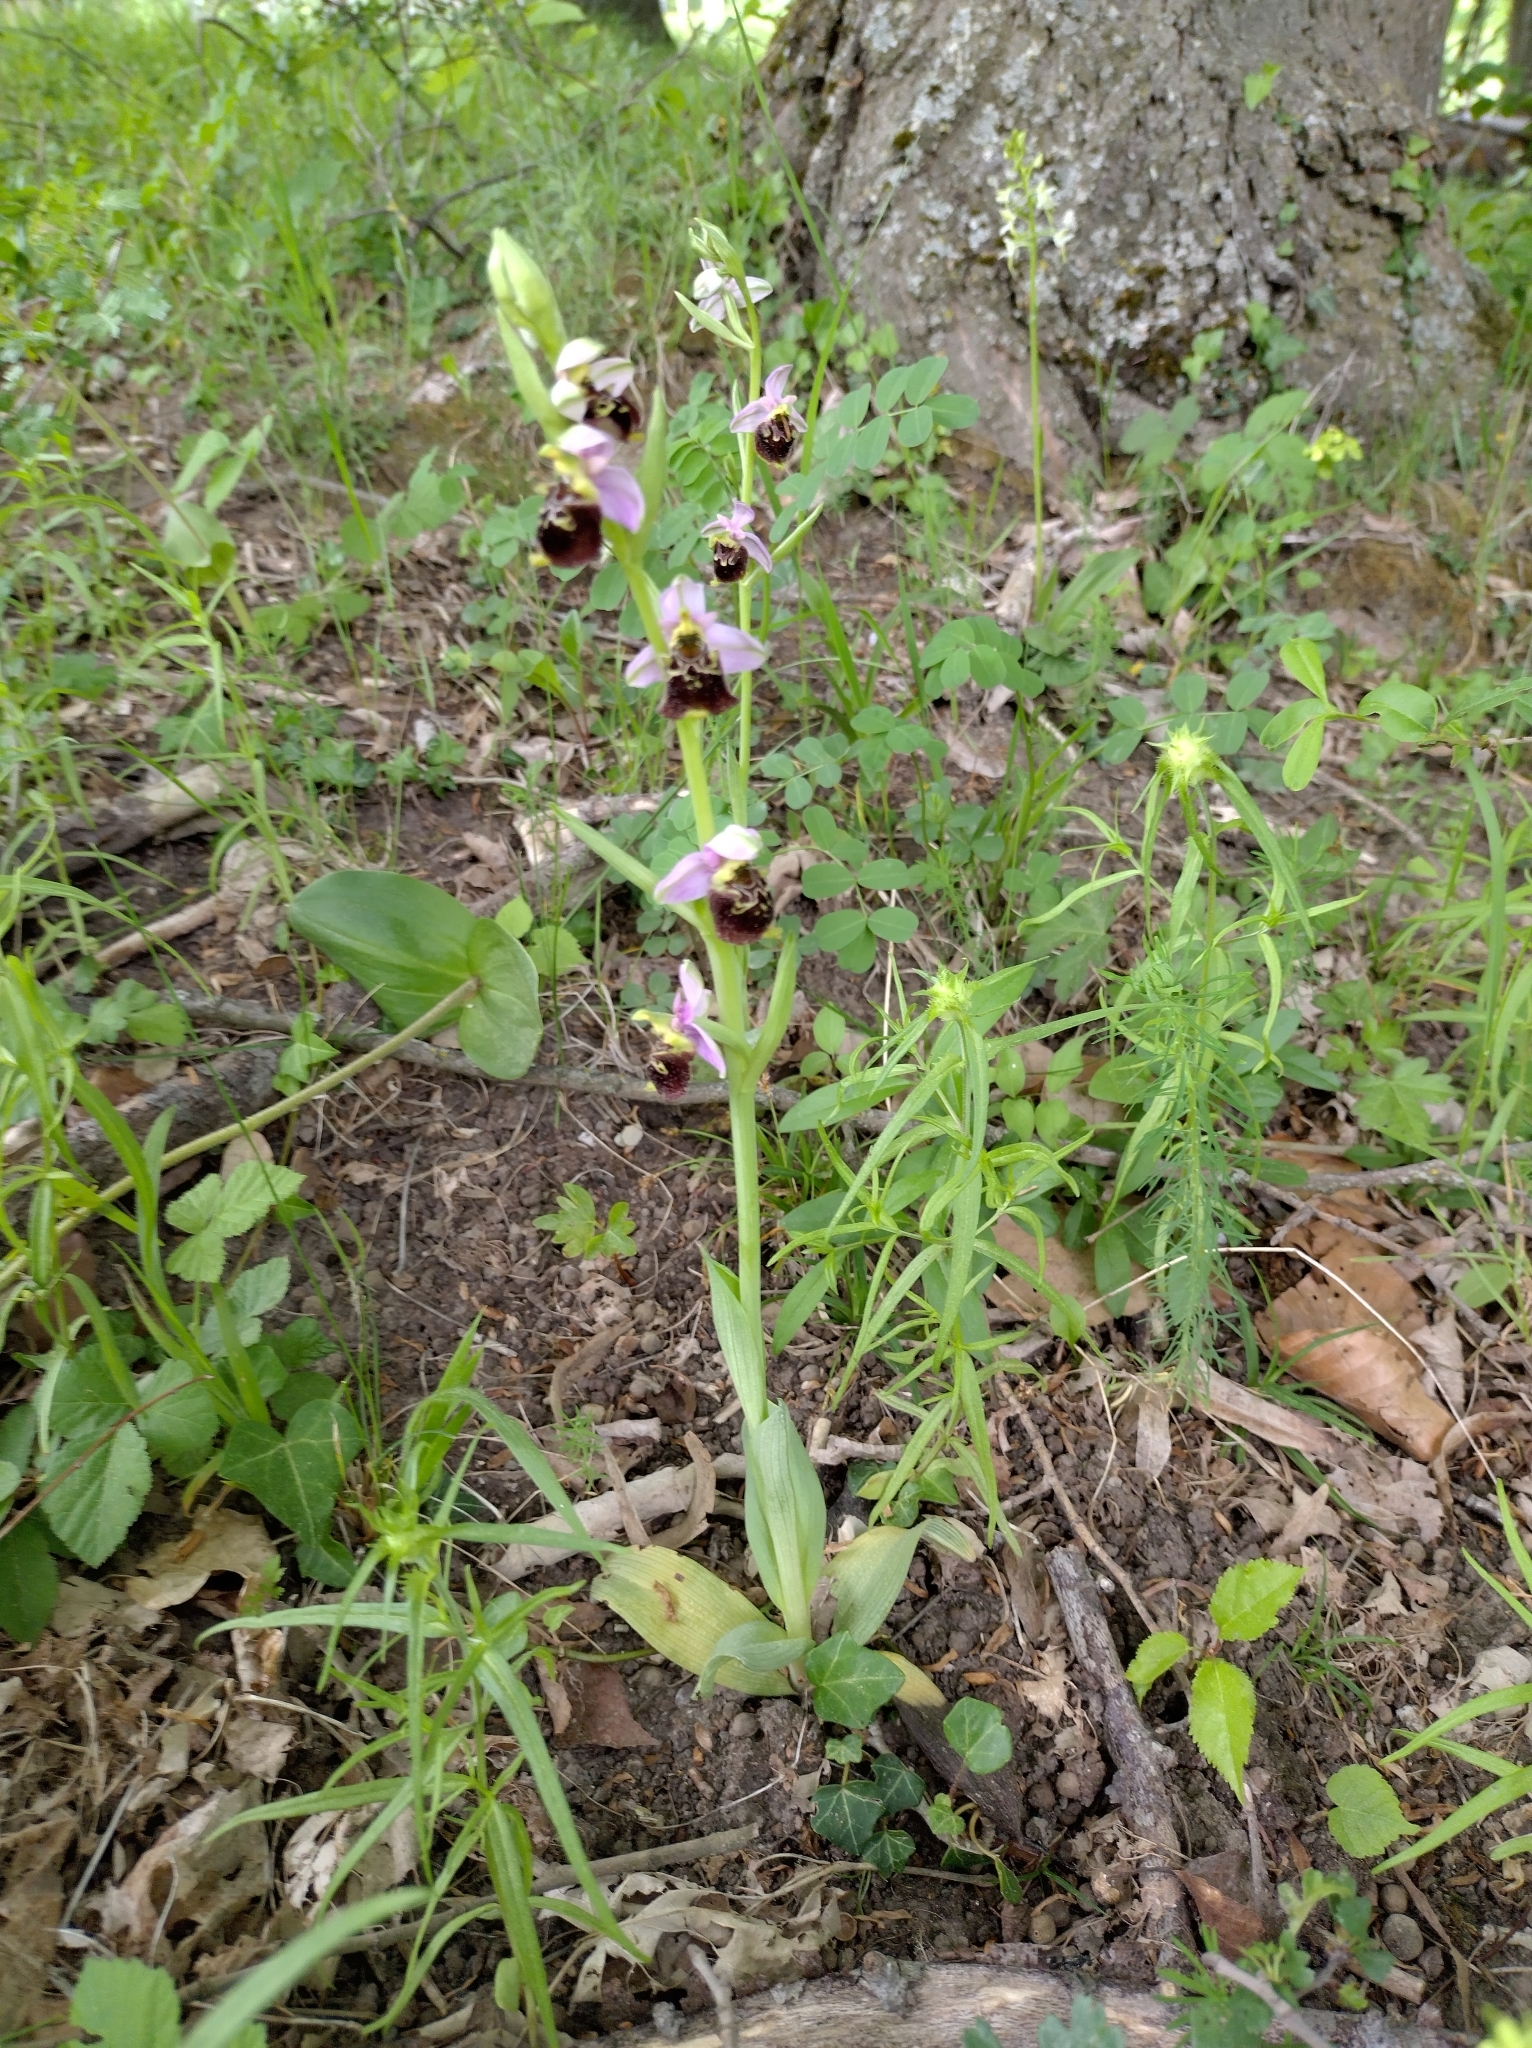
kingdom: Plantae
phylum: Tracheophyta
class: Liliopsida
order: Asparagales
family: Orchidaceae
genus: Ophrys
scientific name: Ophrys holosericea
